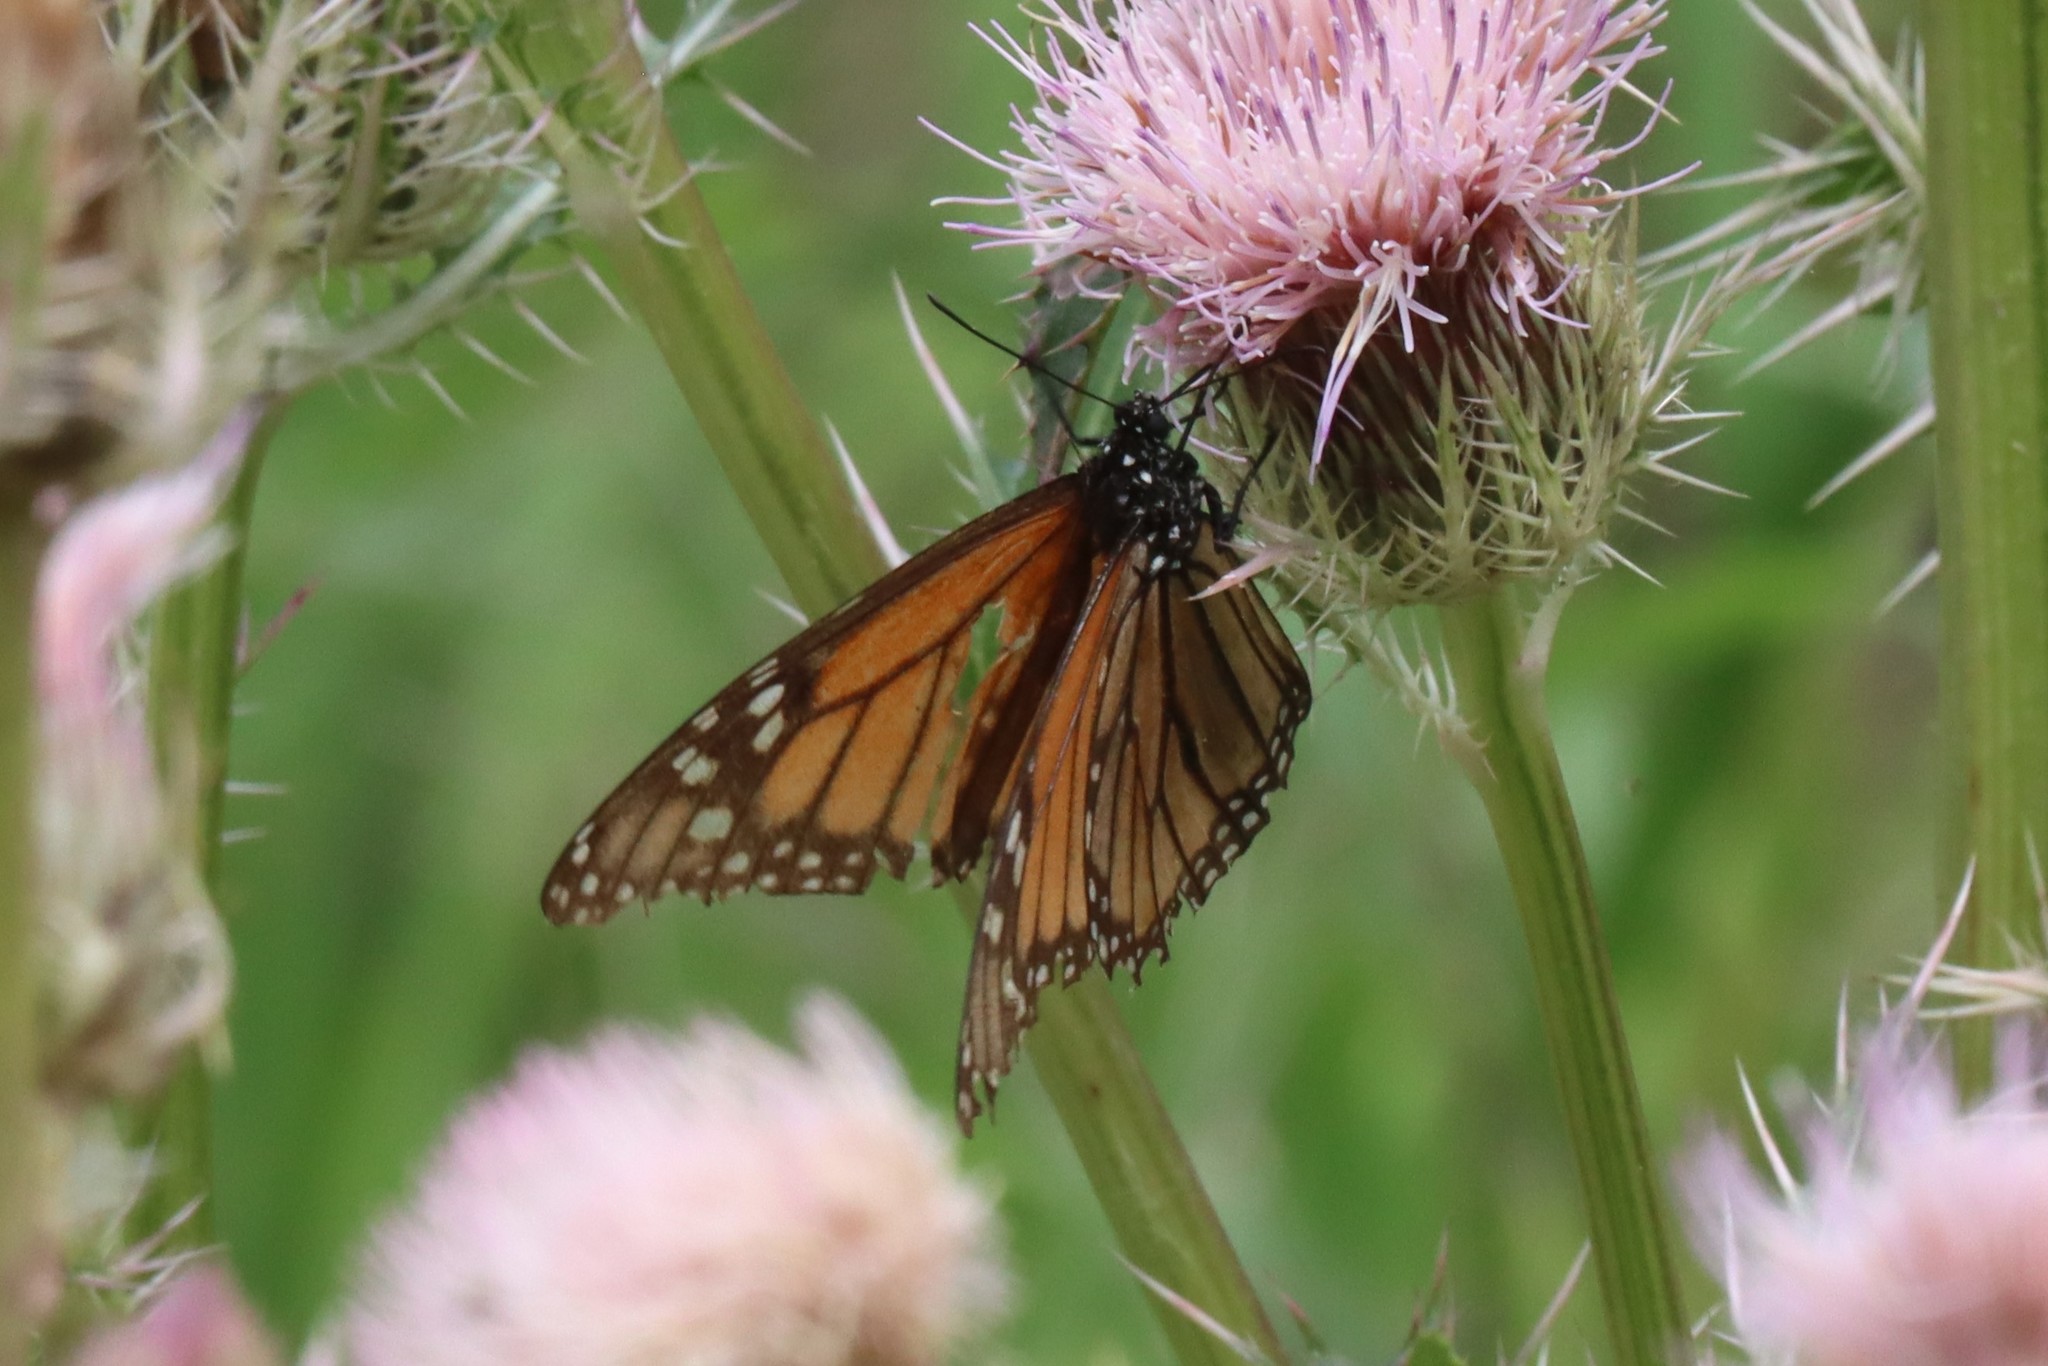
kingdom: Animalia
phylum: Arthropoda
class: Insecta
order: Lepidoptera
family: Nymphalidae
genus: Danaus
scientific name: Danaus plexippus
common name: Monarch
